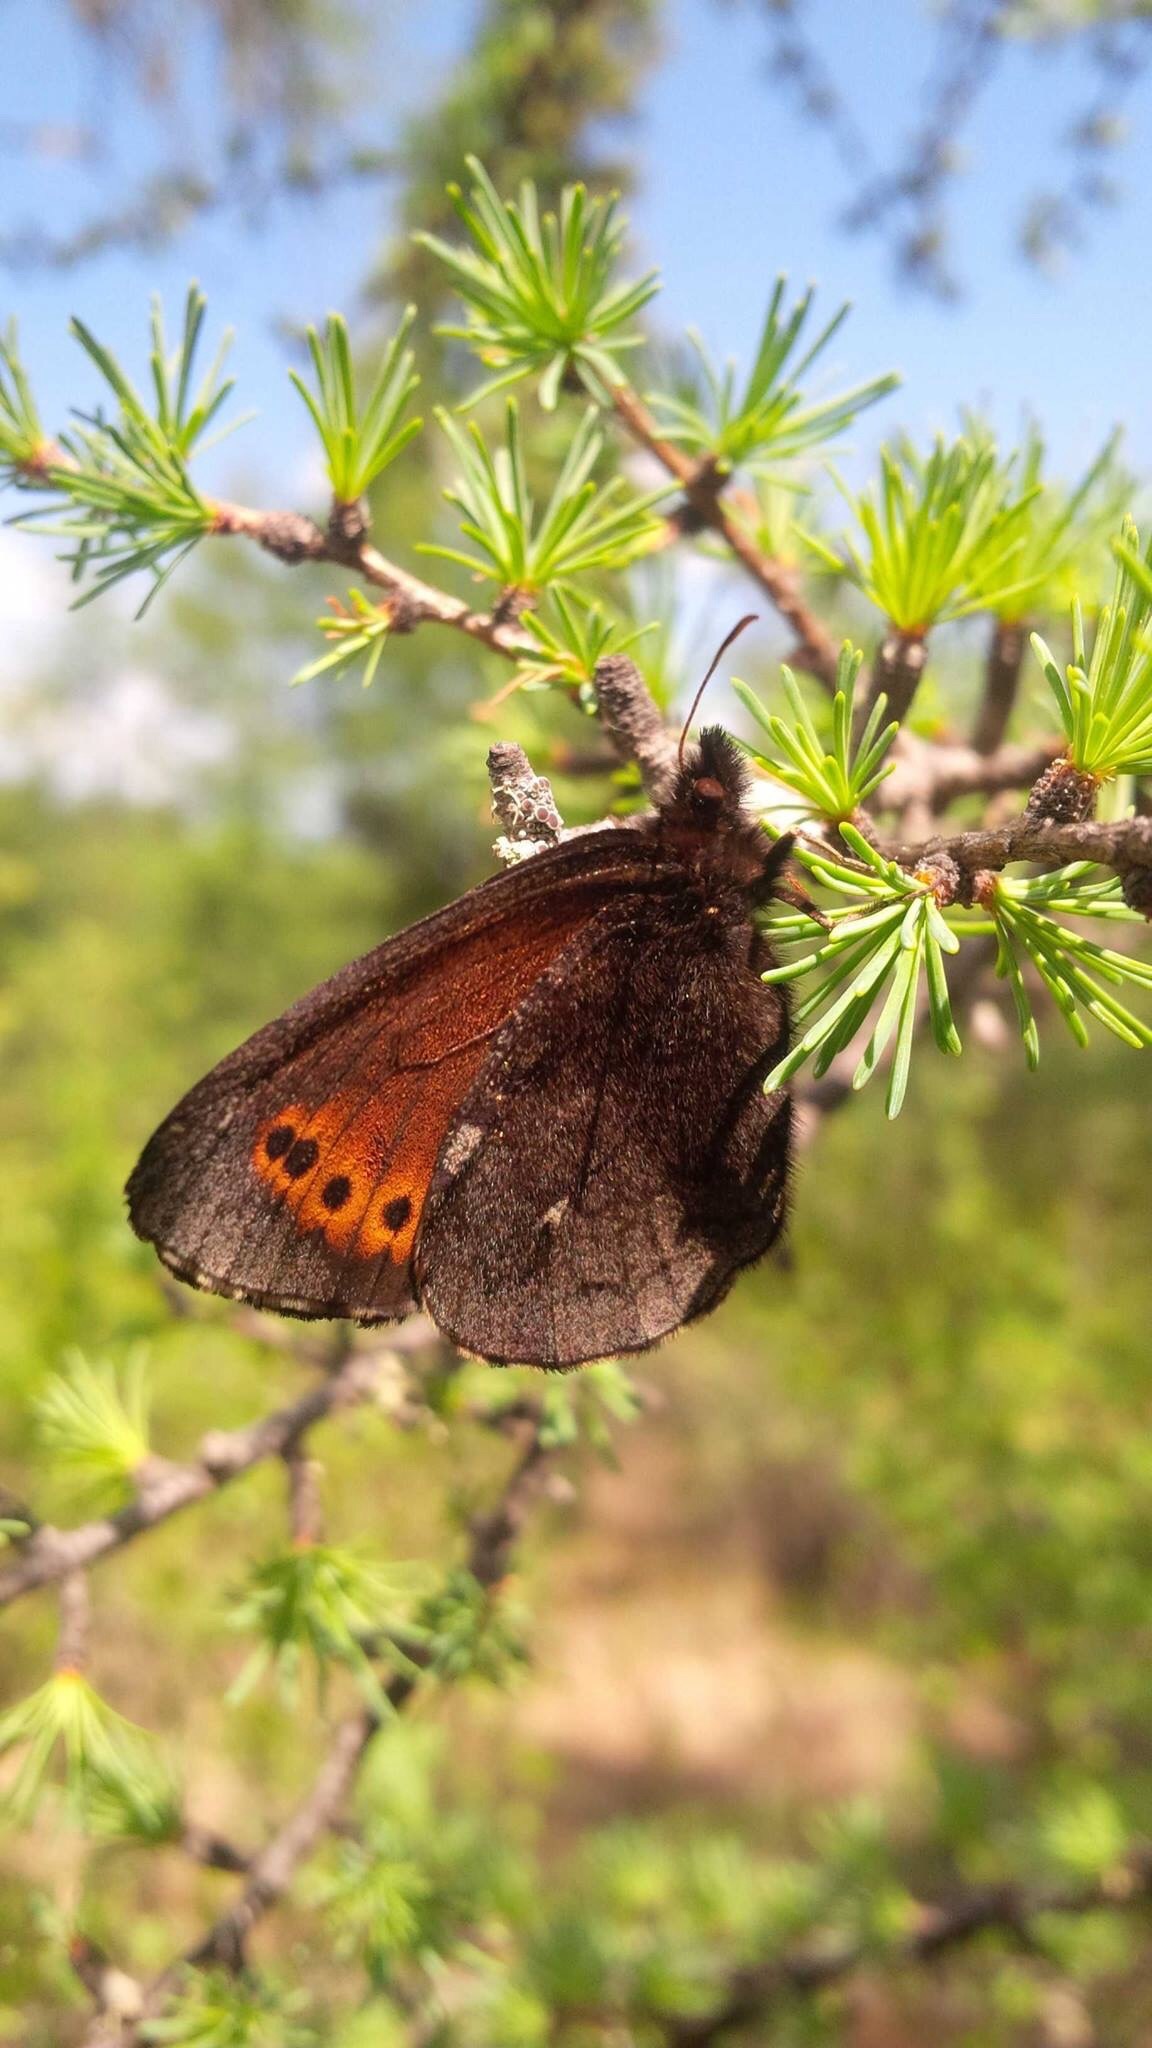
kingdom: Animalia
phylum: Arthropoda
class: Insecta
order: Lepidoptera
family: Nymphalidae
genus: Erebia
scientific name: Erebia disa
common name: Arctic ringlet
